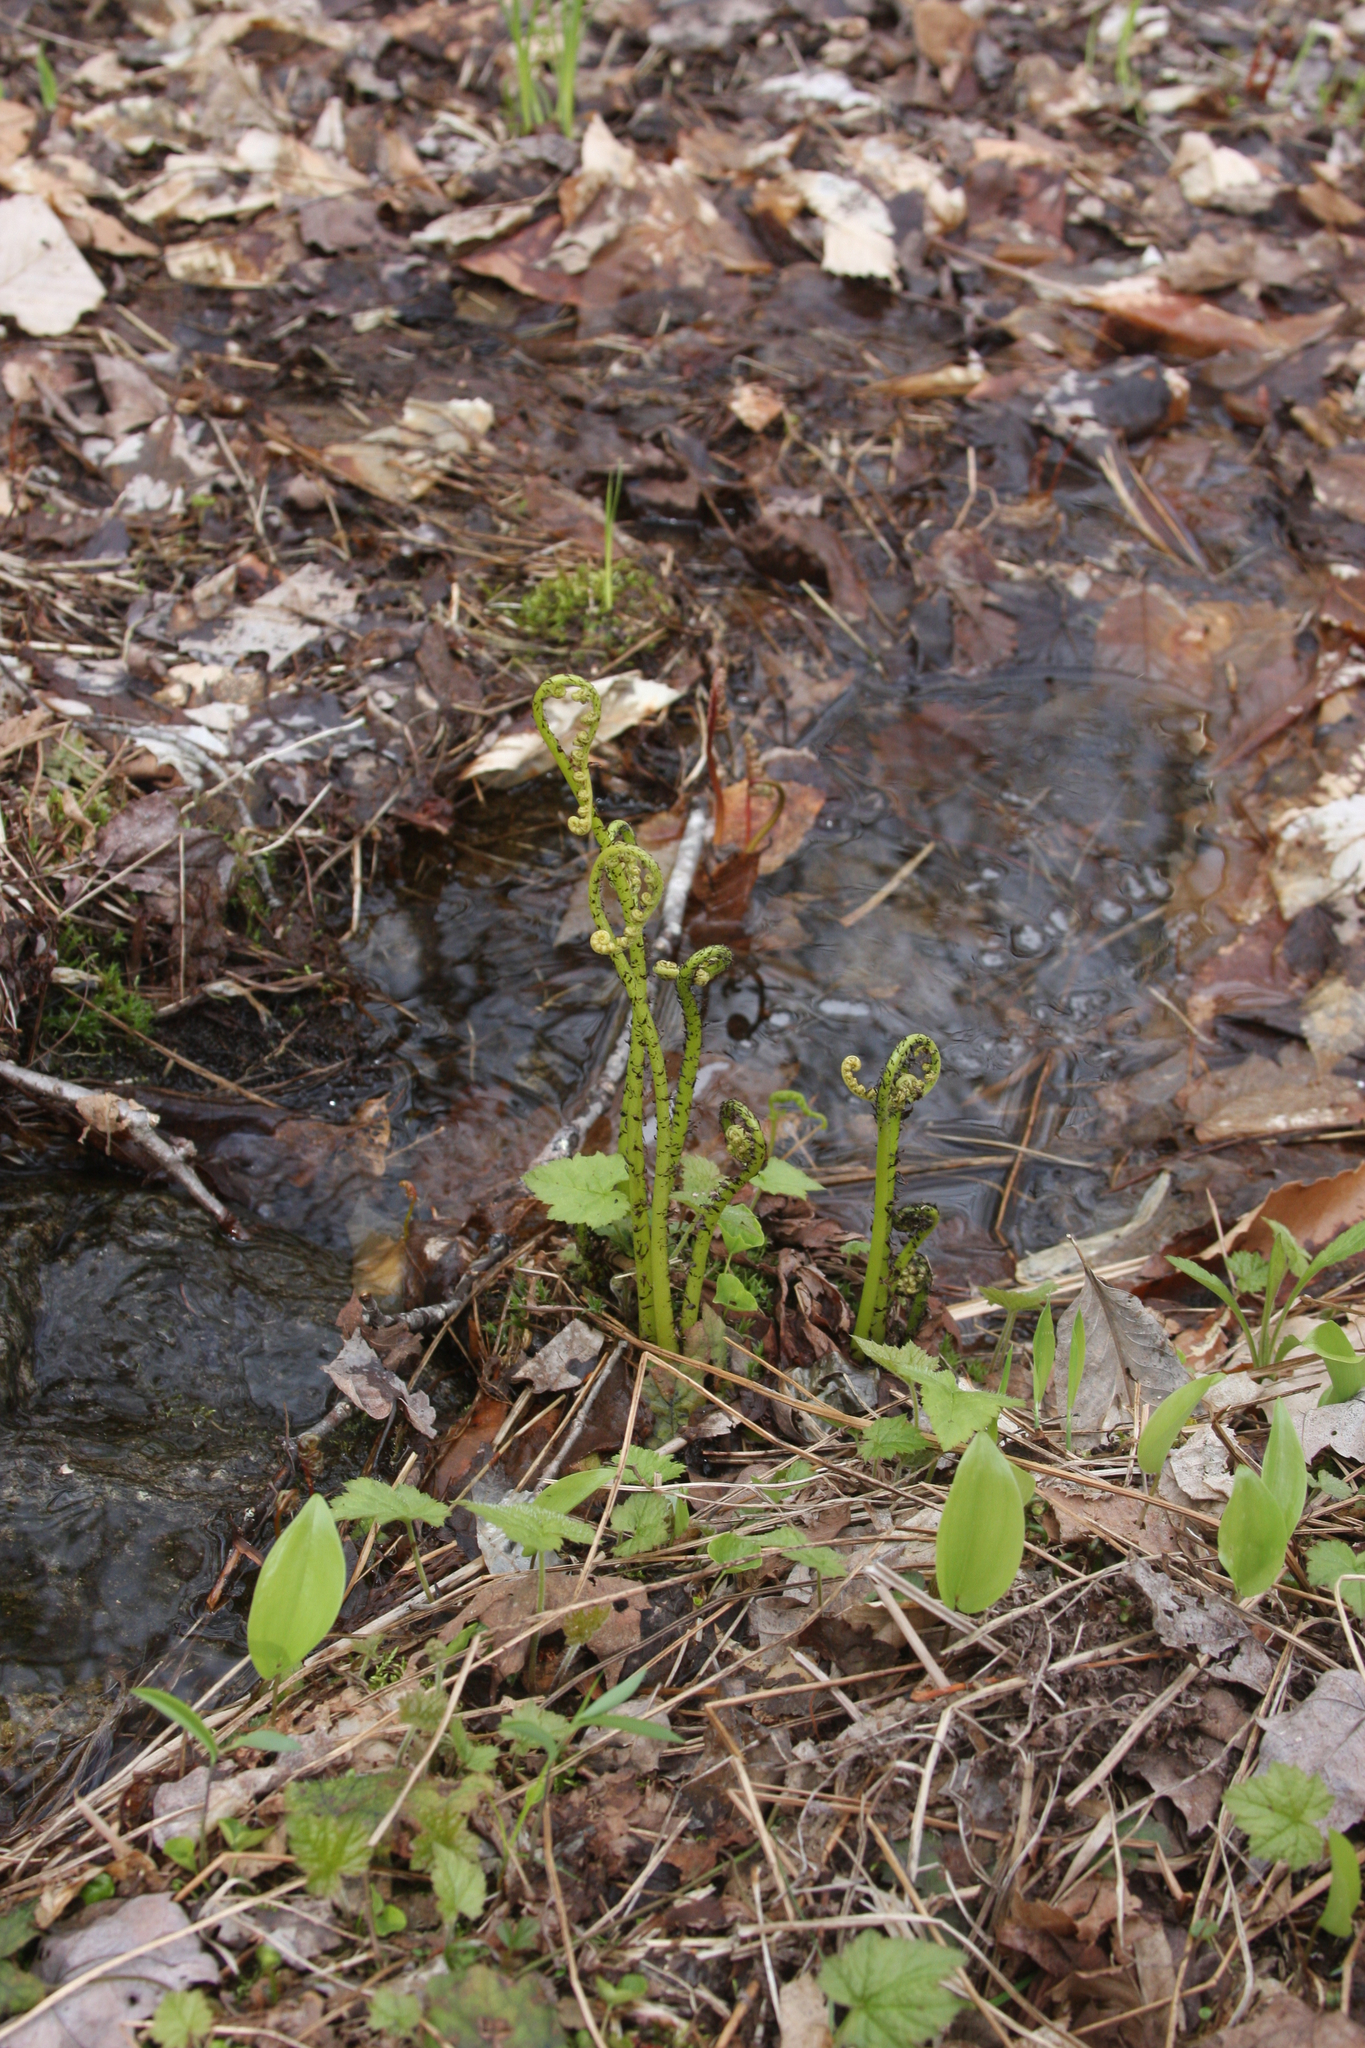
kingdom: Plantae
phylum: Tracheophyta
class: Liliopsida
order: Asparagales
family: Asparagaceae
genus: Maianthemum
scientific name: Maianthemum canadense
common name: False lily-of-the-valley
